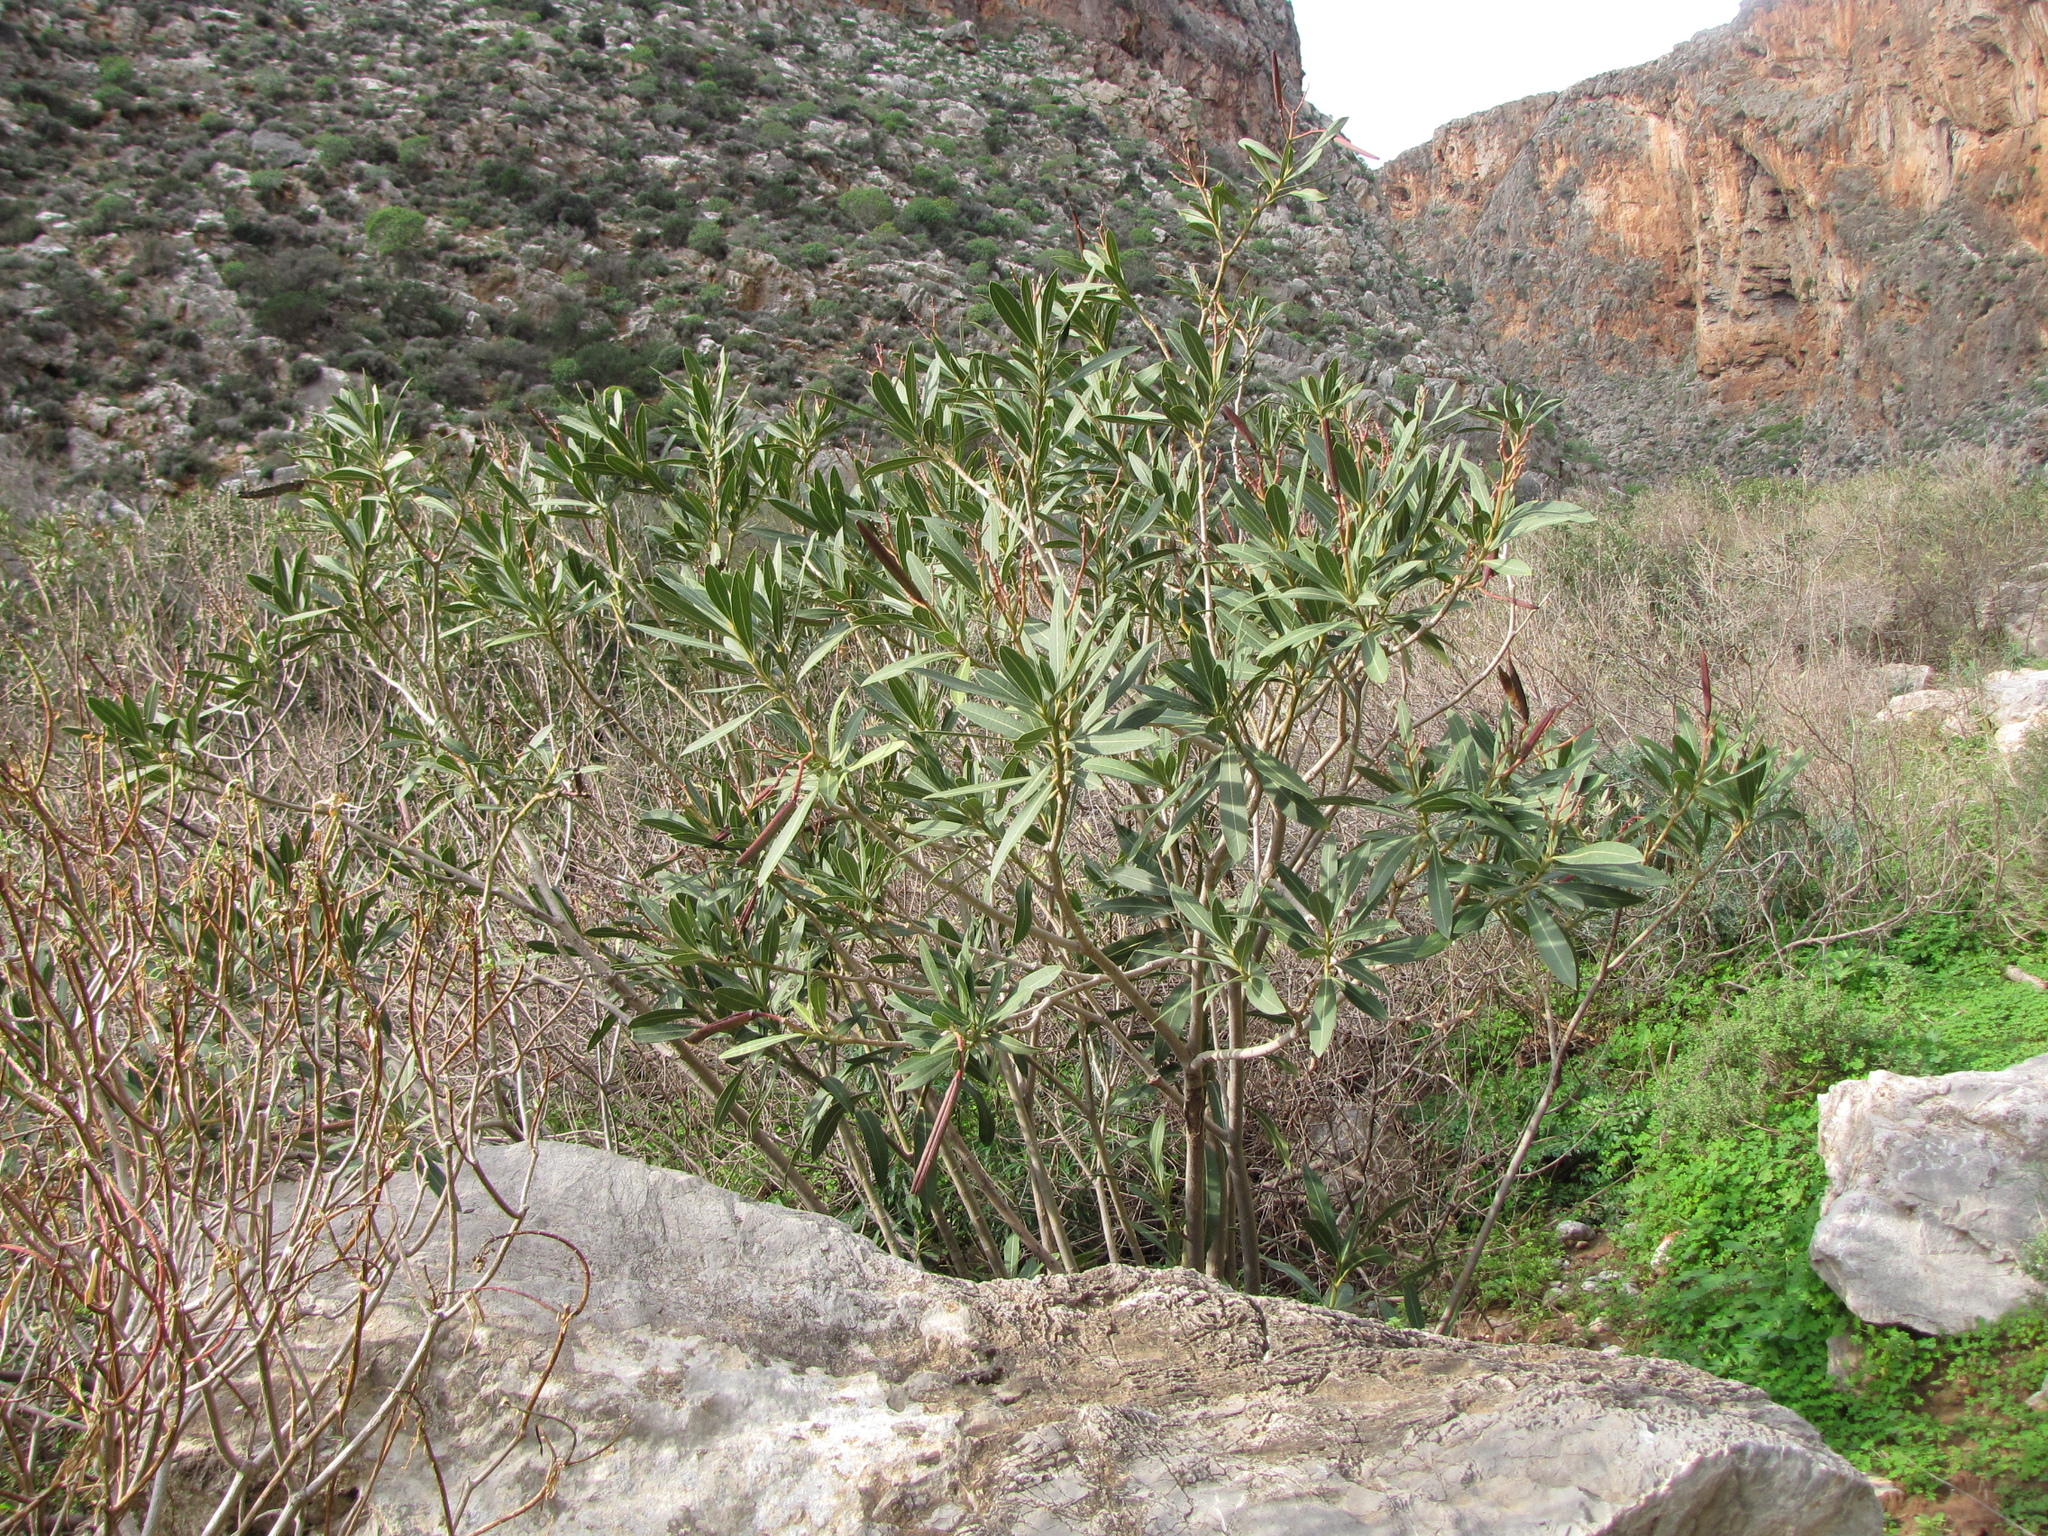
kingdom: Plantae
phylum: Tracheophyta
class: Magnoliopsida
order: Gentianales
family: Apocynaceae
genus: Nerium
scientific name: Nerium oleander
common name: Oleander
